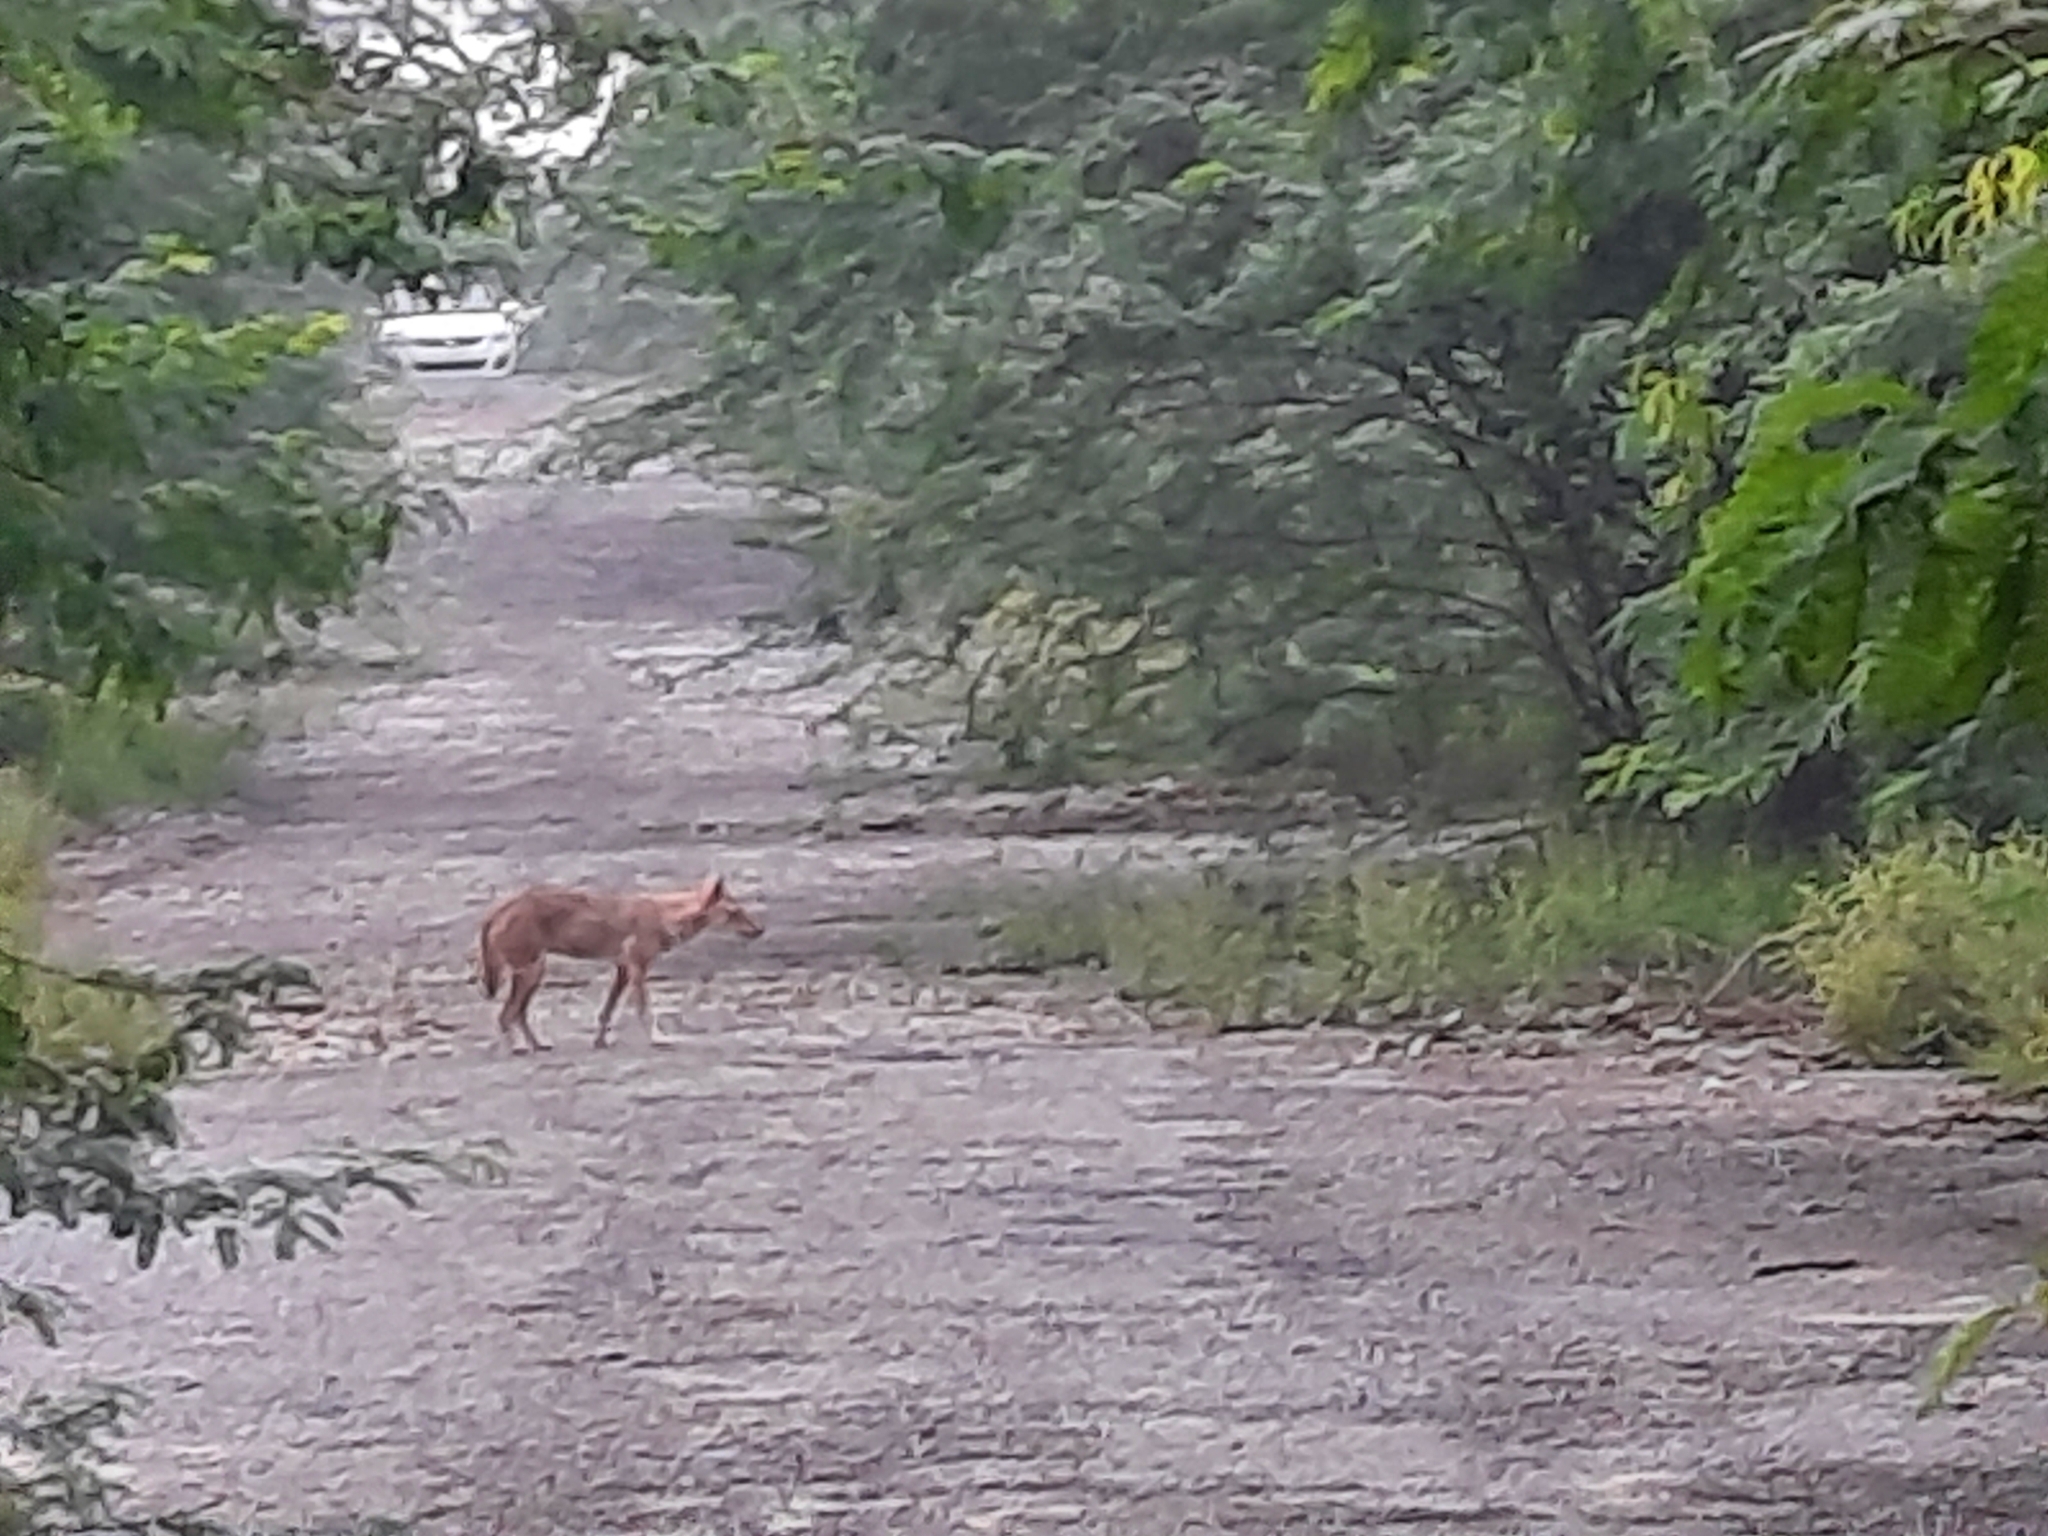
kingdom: Animalia
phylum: Chordata
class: Mammalia
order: Carnivora
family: Canidae
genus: Canis
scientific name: Canis aureus
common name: Golden jackal
